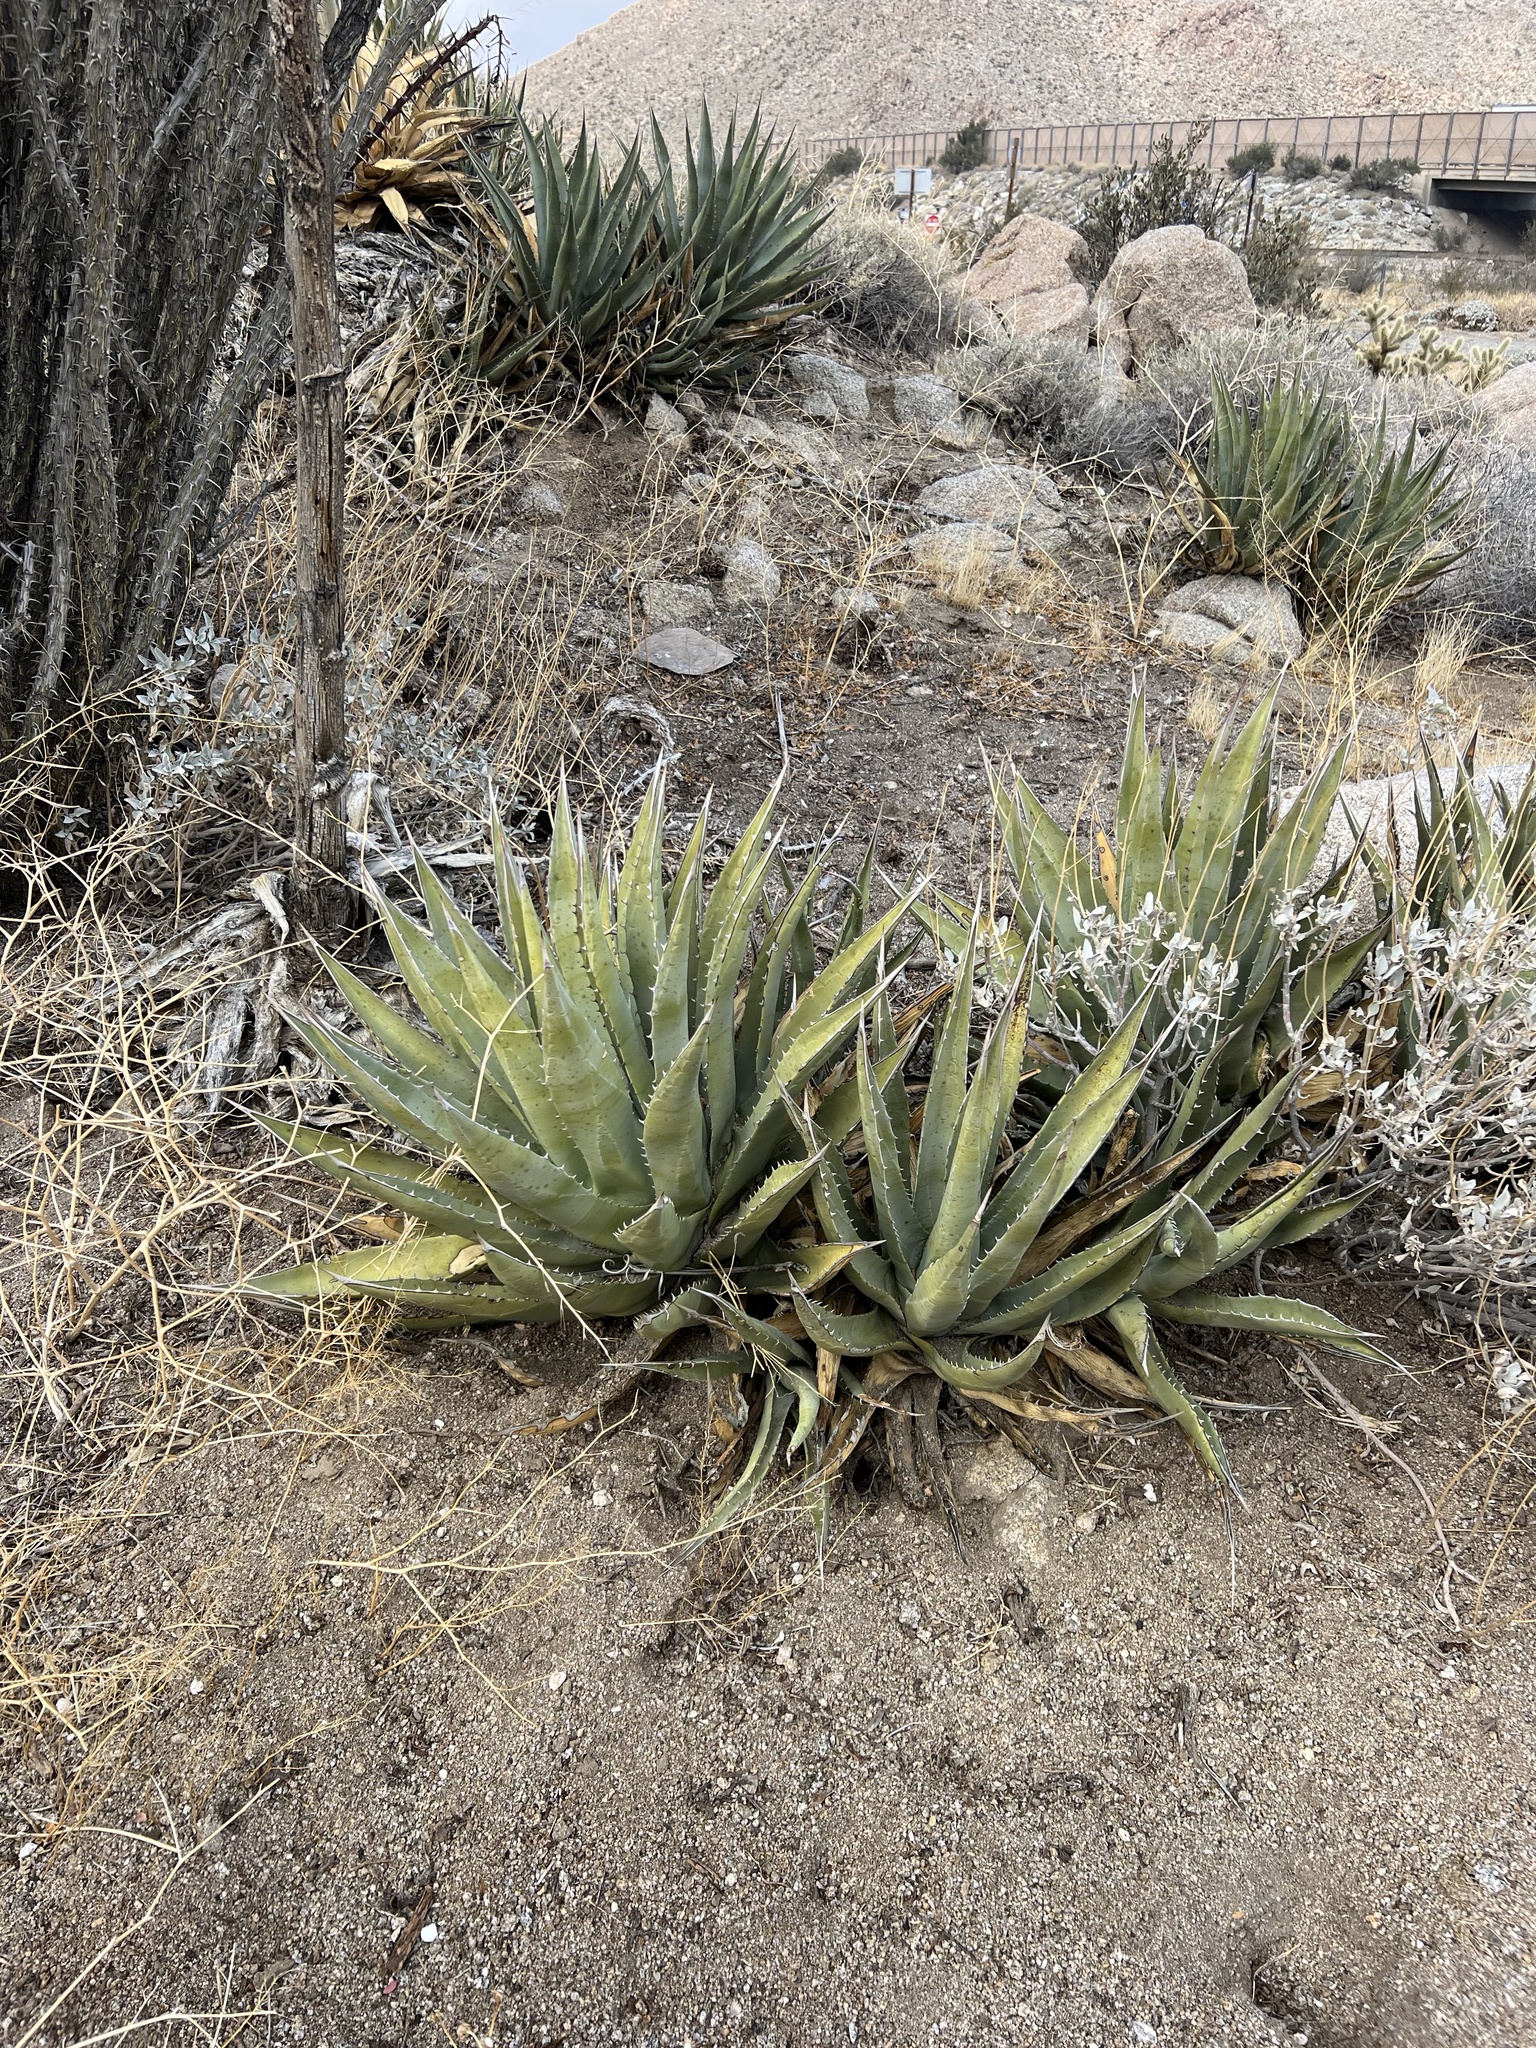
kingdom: Plantae
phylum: Tracheophyta
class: Liliopsida
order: Asparagales
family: Asparagaceae
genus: Agave
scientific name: Agave deserti
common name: Desert agave
